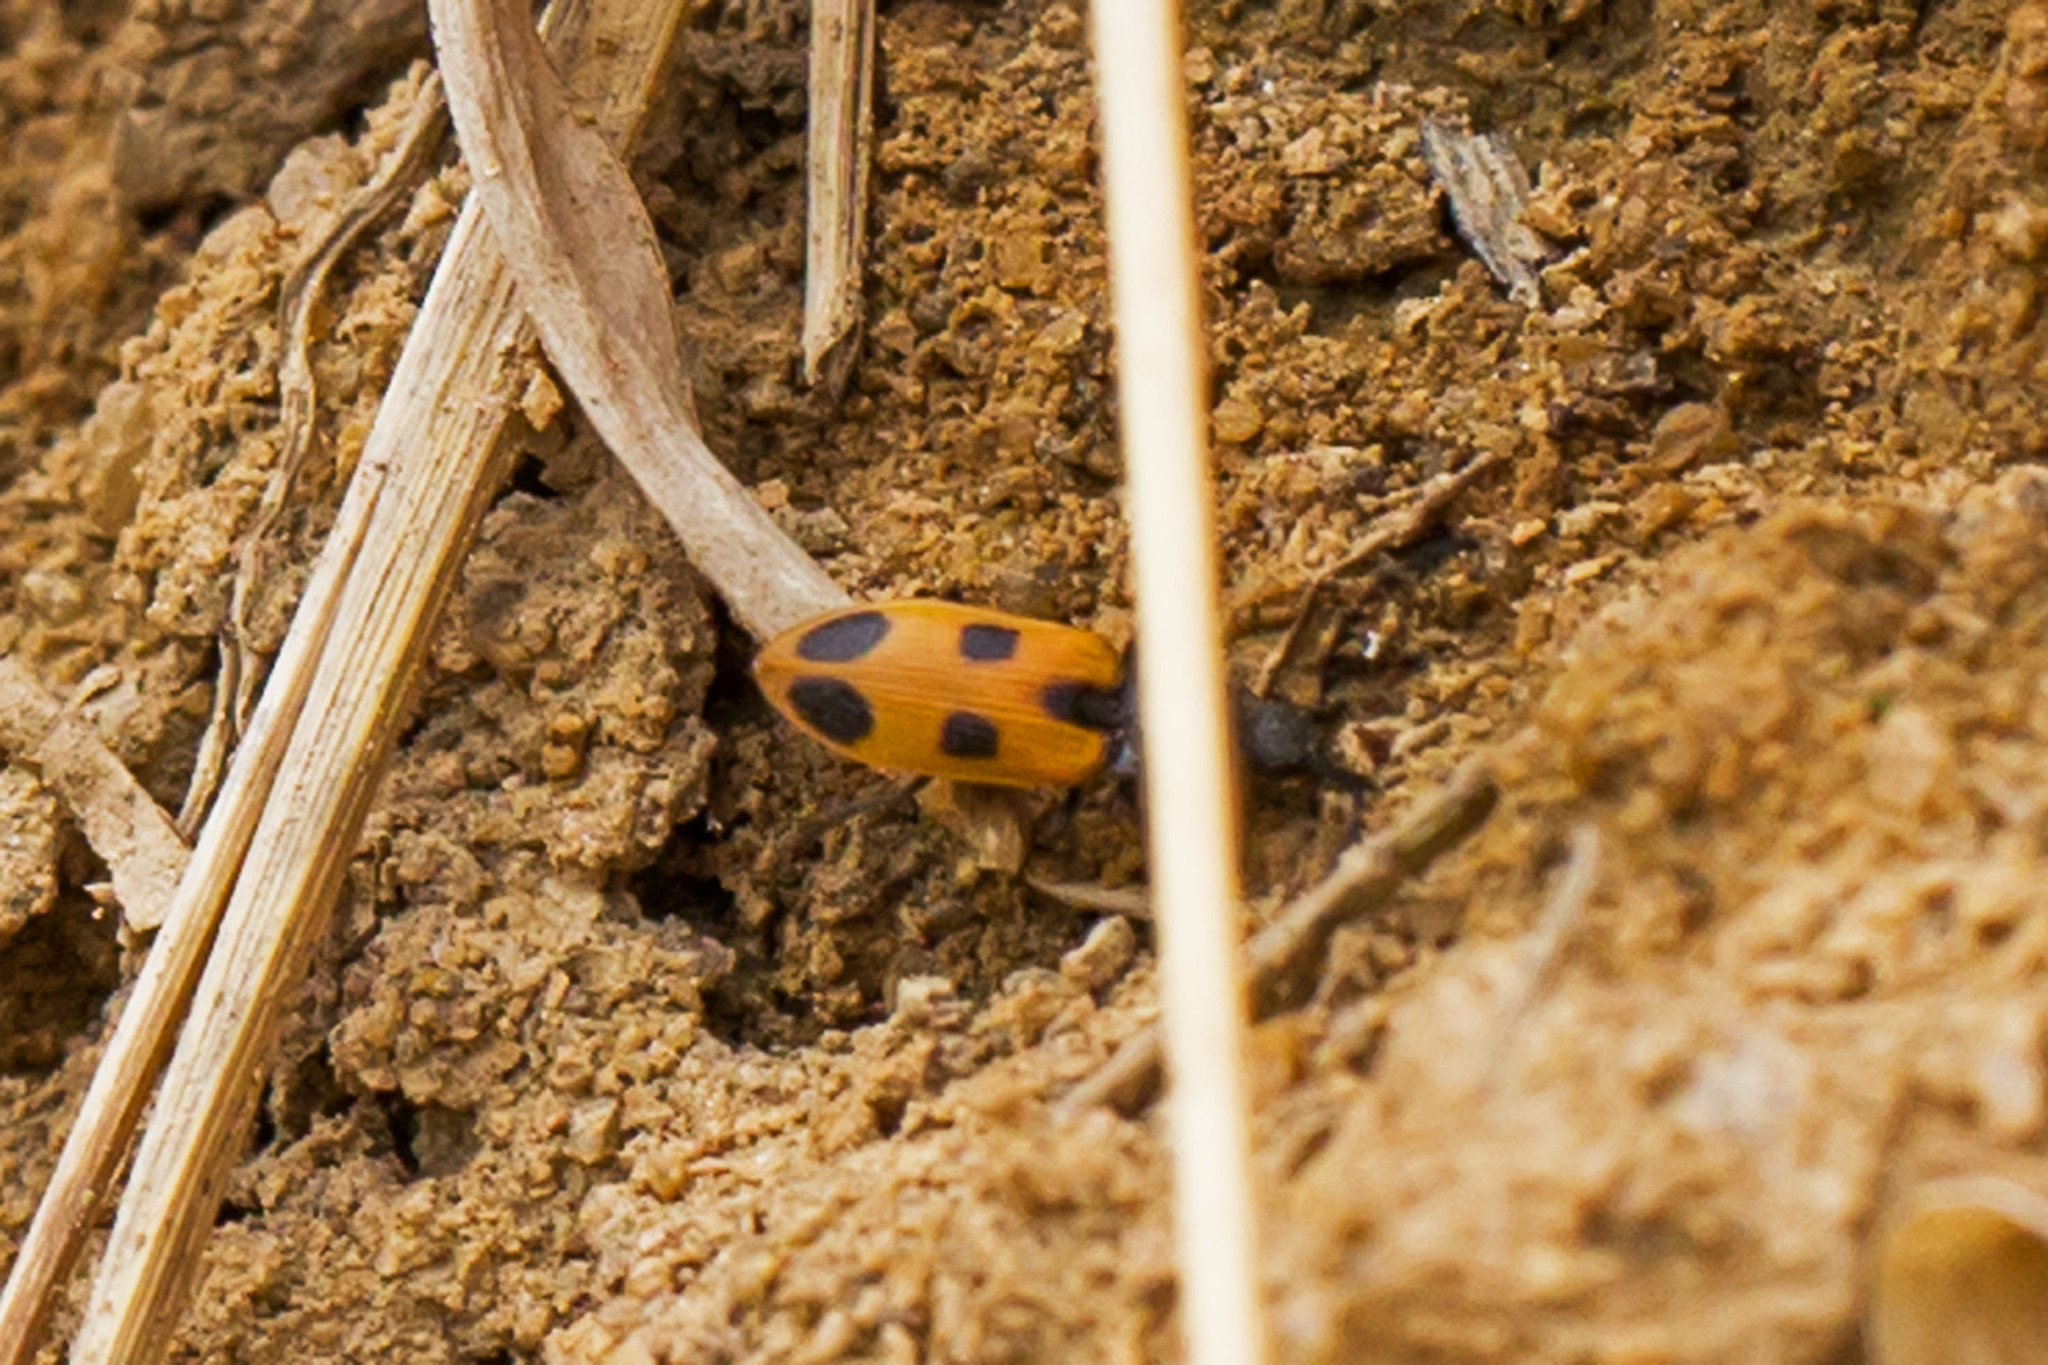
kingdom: Animalia
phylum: Arthropoda
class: Insecta
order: Coleoptera
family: Elateridae
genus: Anostirus
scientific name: Anostirus vernalis
